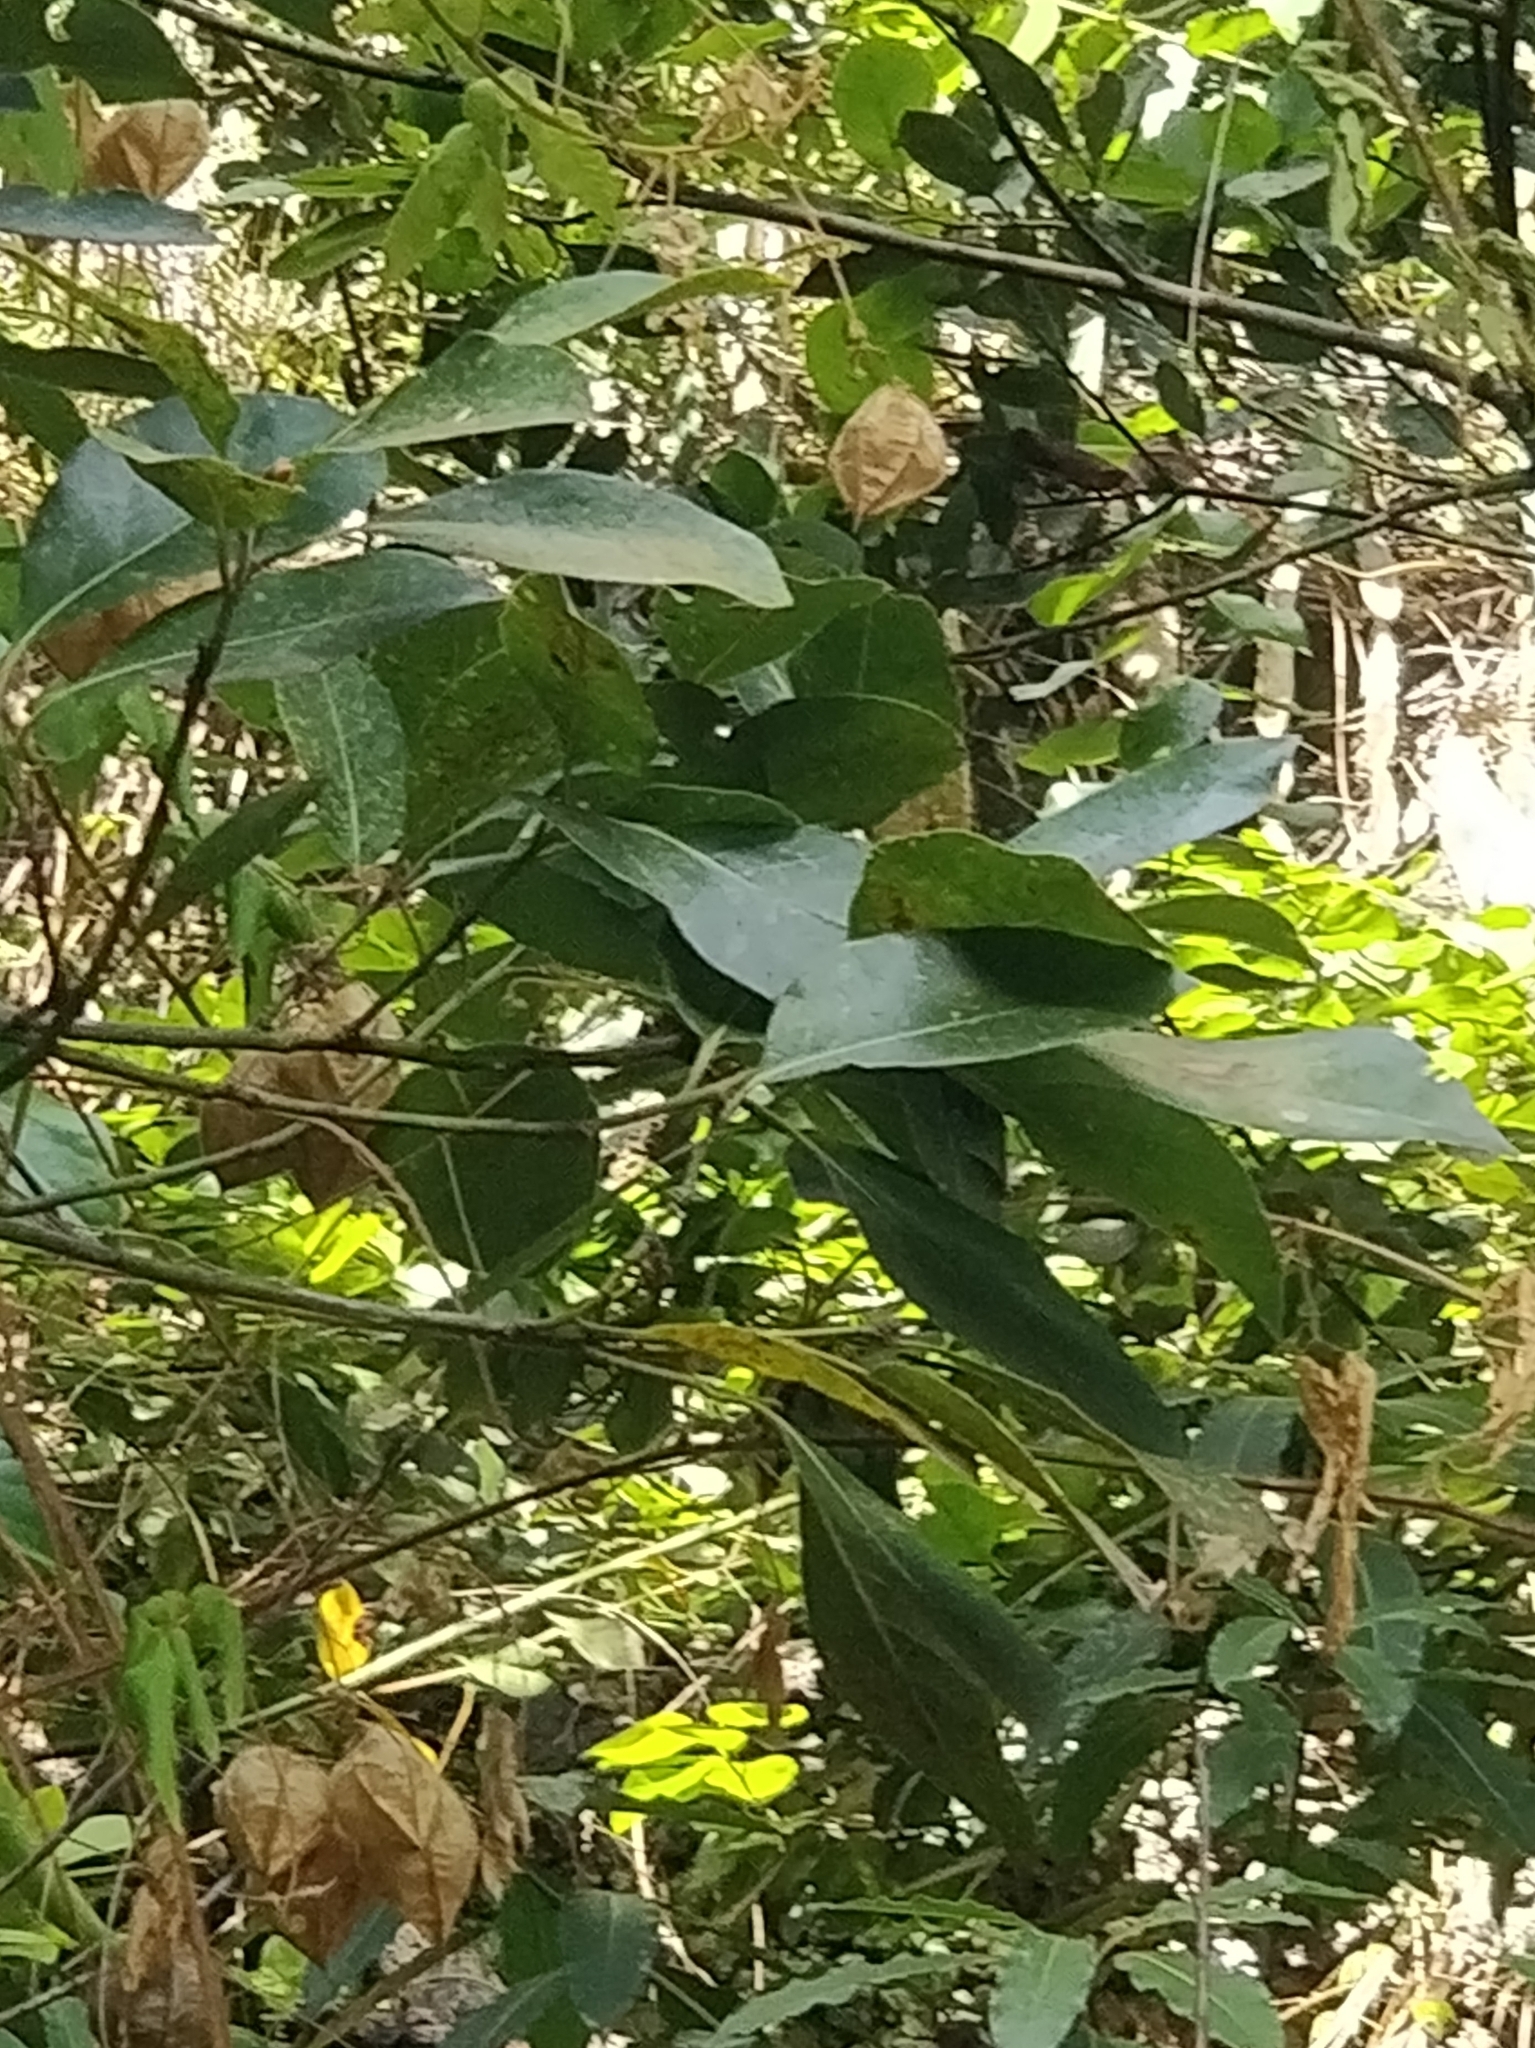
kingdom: Plantae
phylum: Tracheophyta
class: Magnoliopsida
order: Laurales
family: Lauraceae
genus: Laurus
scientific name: Laurus novocanariensis
